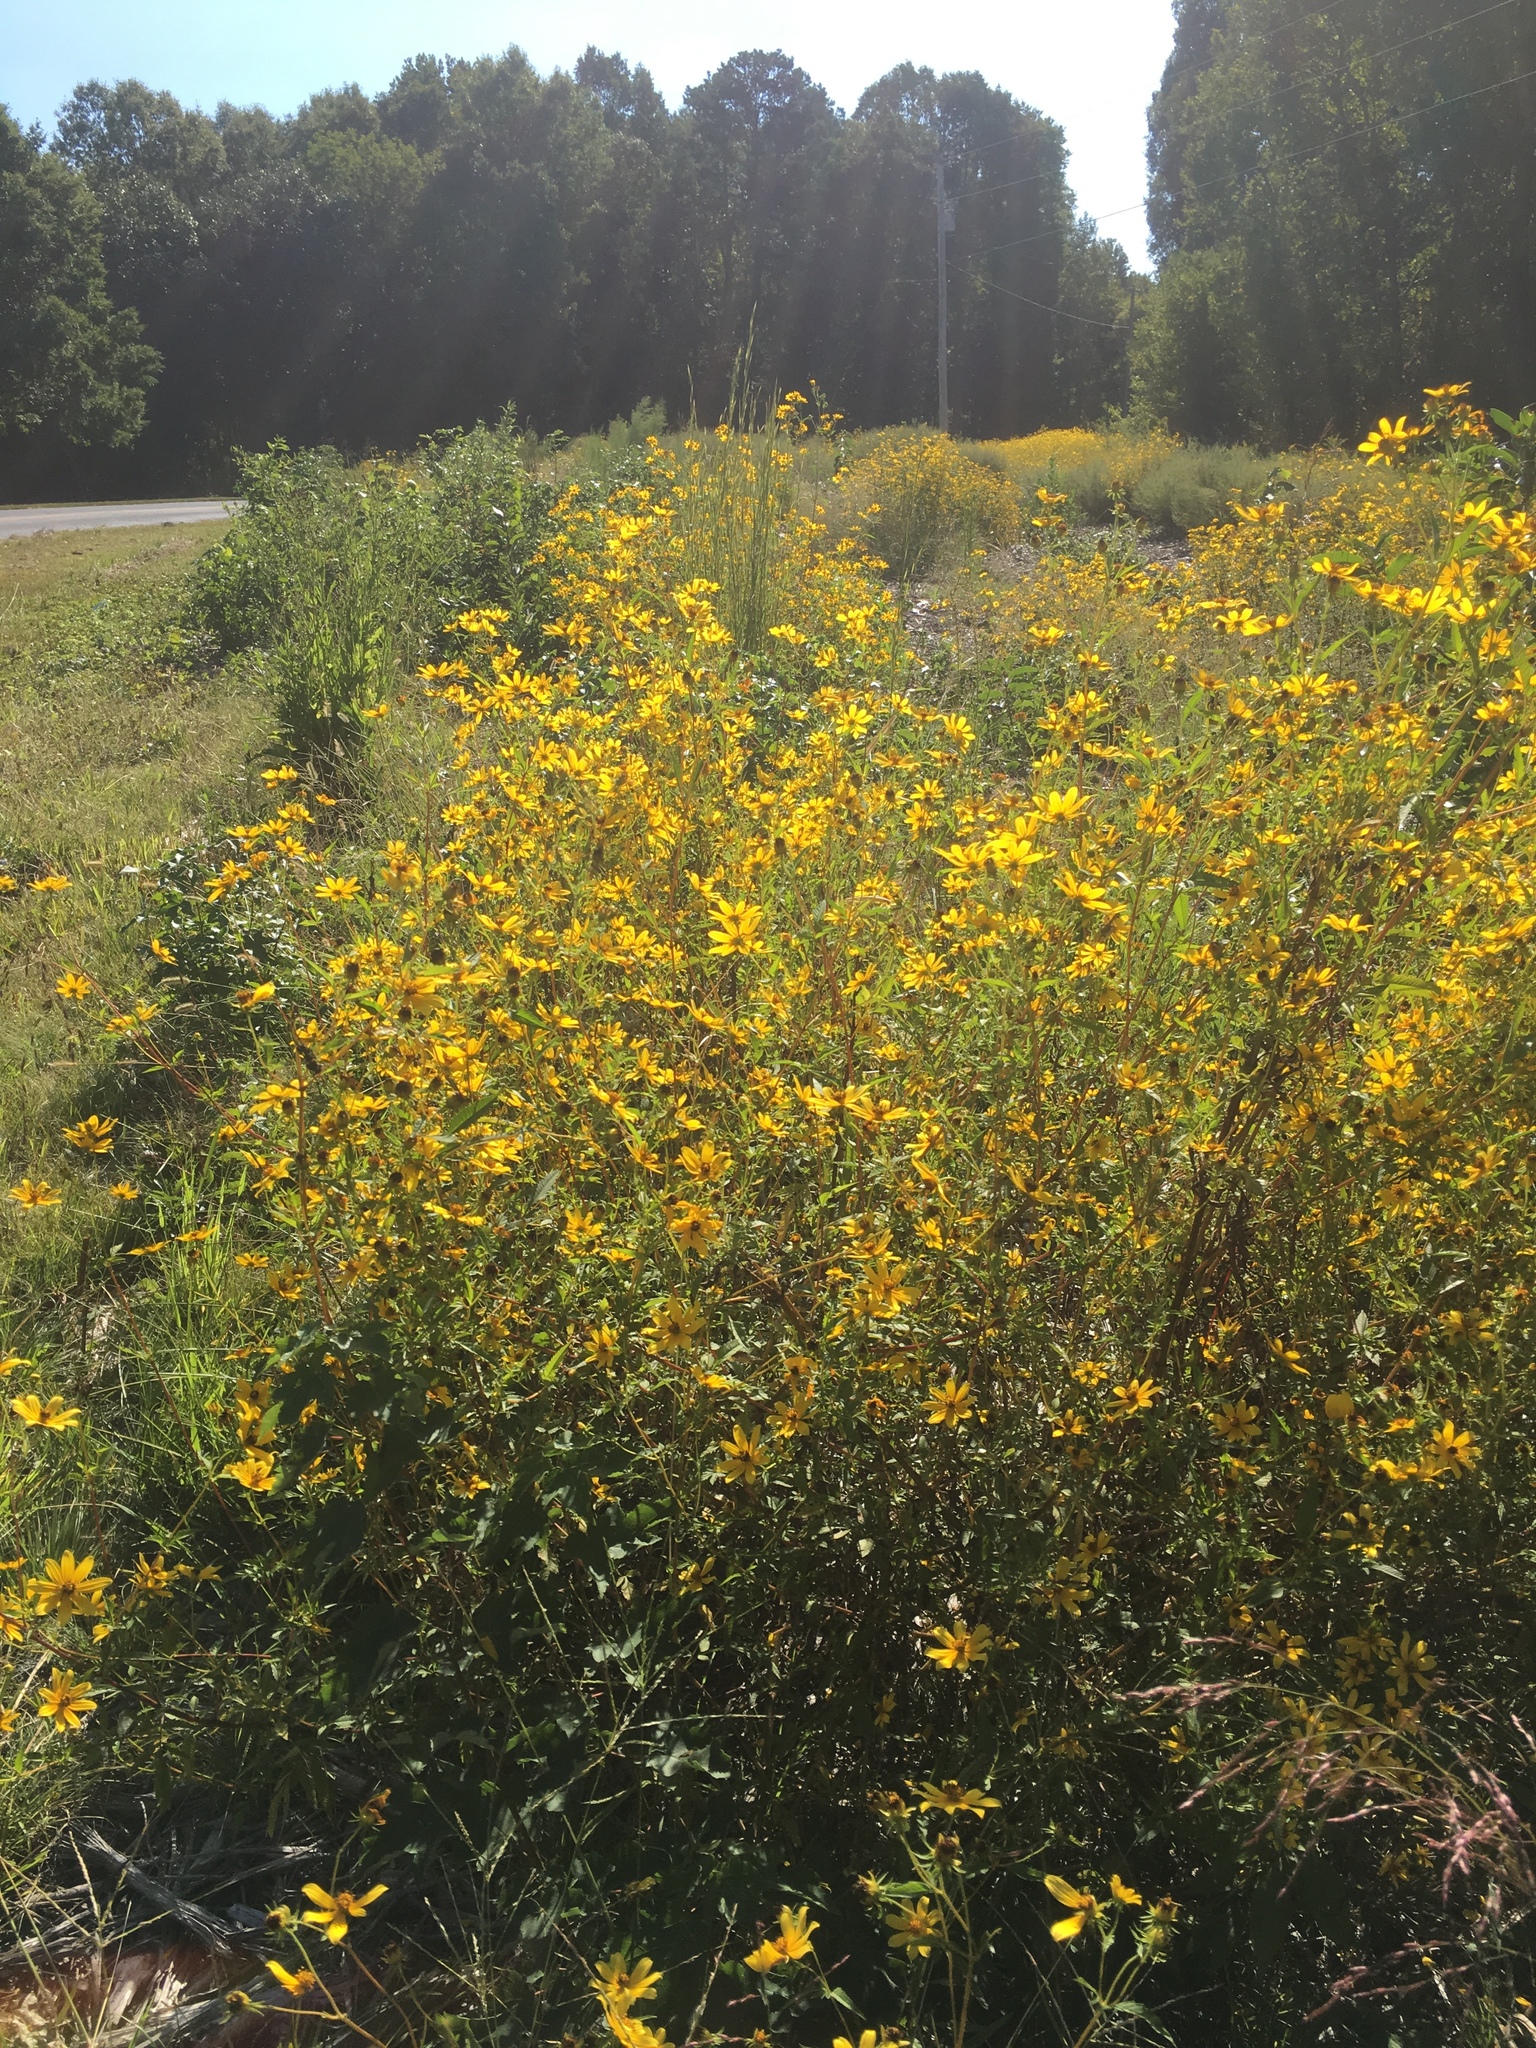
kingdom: Plantae
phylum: Tracheophyta
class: Magnoliopsida
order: Asterales
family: Asteraceae
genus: Bidens
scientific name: Bidens aristosa
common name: Western tickseed
